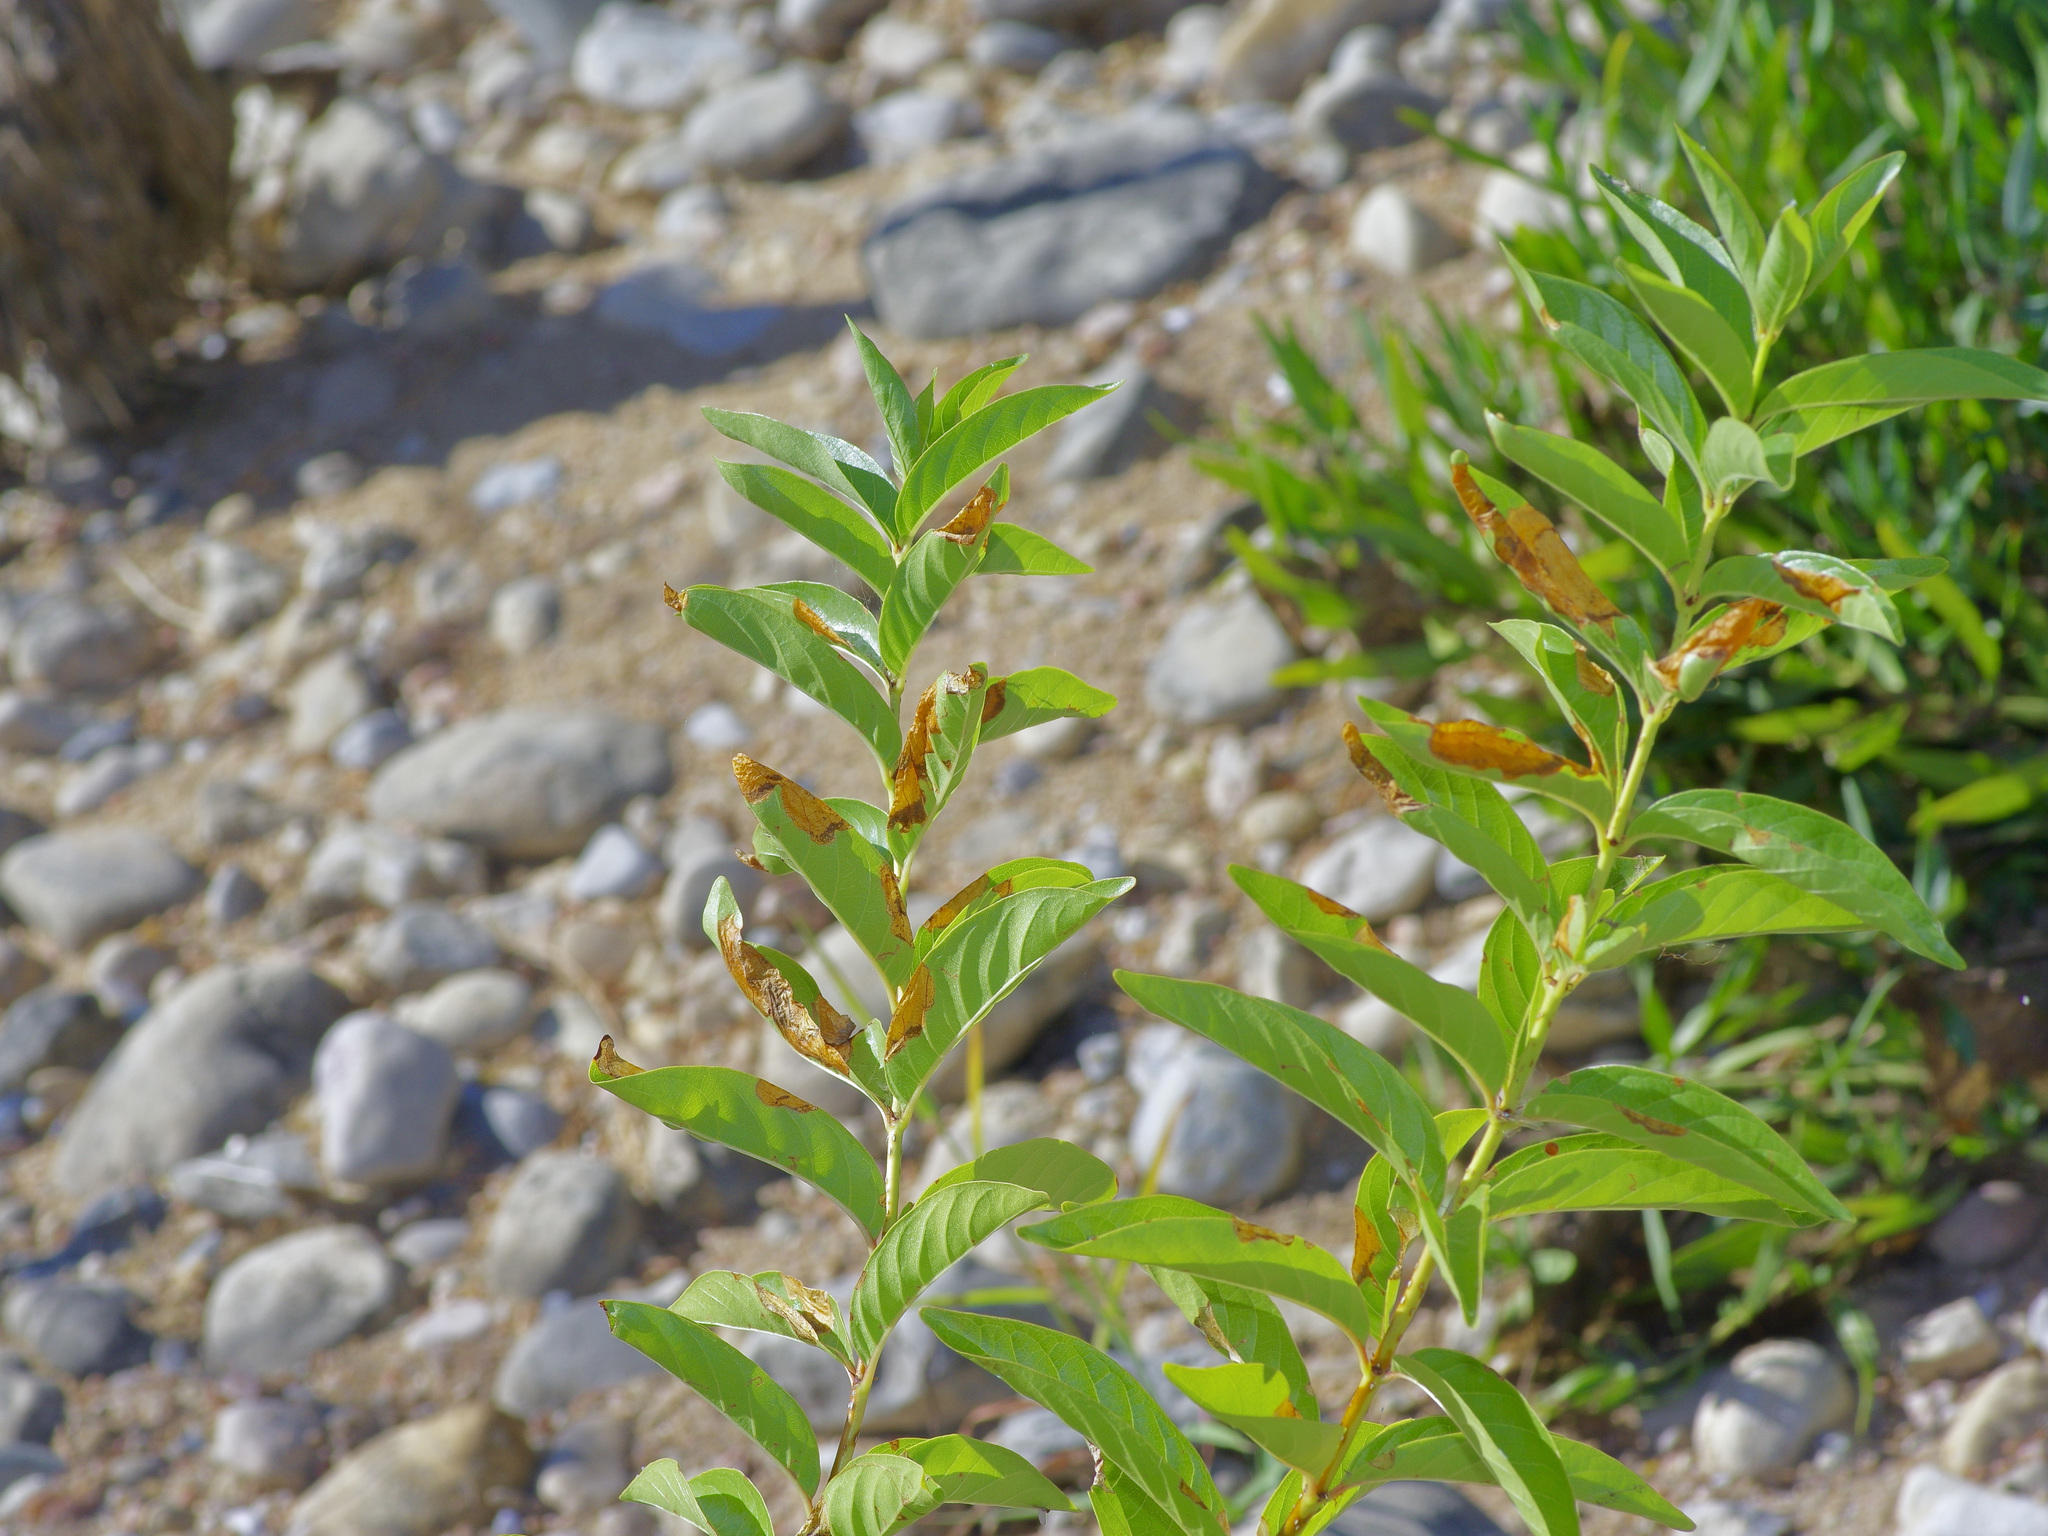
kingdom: Plantae
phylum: Tracheophyta
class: Magnoliopsida
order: Gentianales
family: Rubiaceae
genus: Cephalanthus
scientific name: Cephalanthus occidentalis
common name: Button-willow
